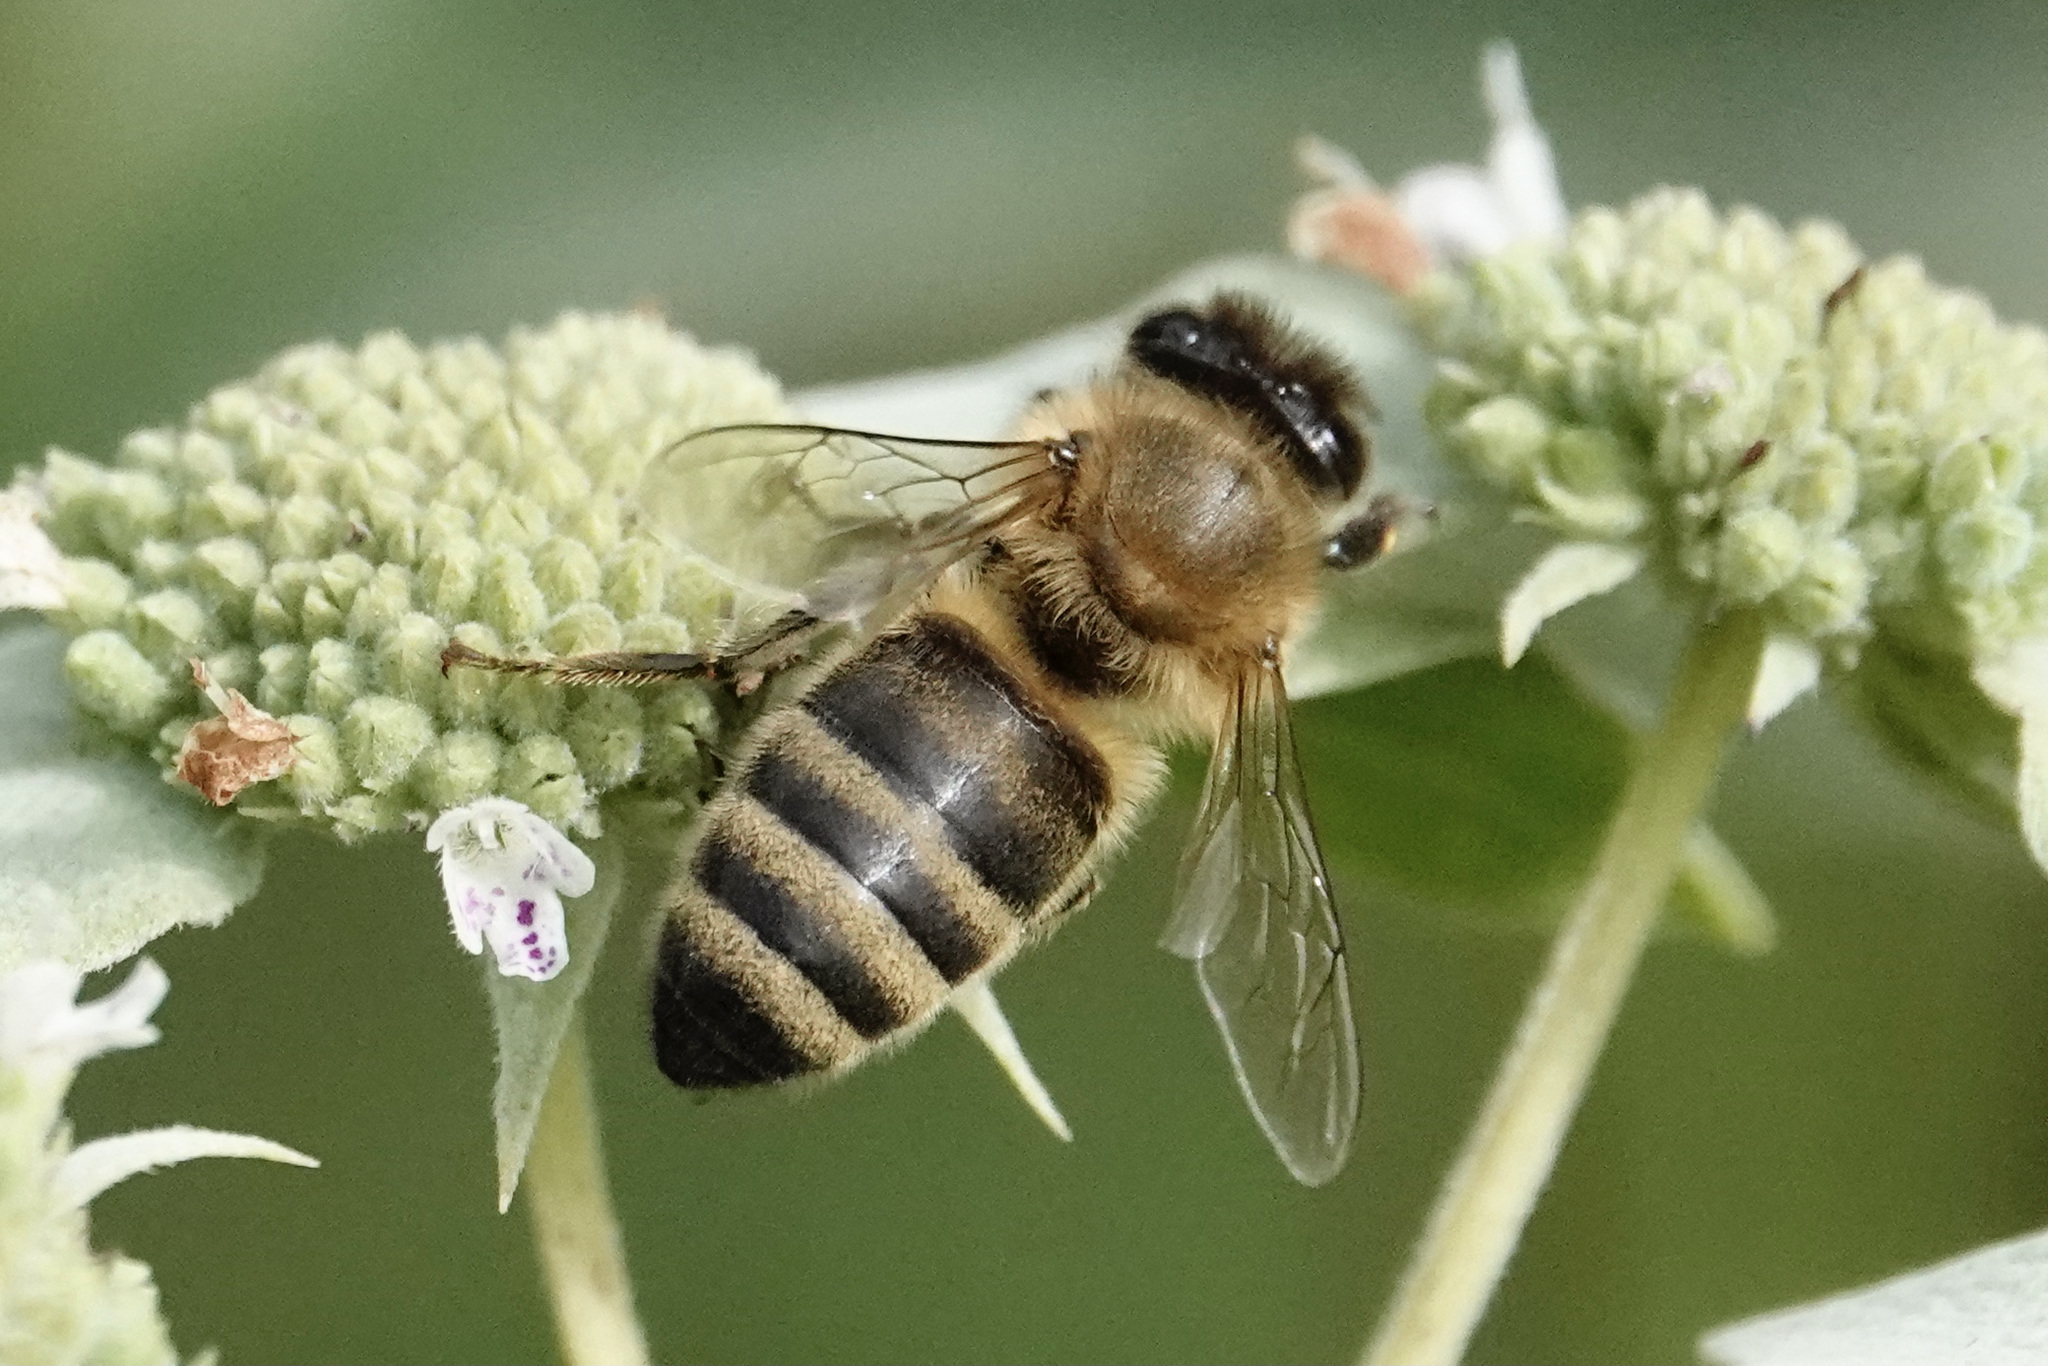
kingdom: Animalia
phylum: Arthropoda
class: Insecta
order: Hymenoptera
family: Apidae
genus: Apis
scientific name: Apis mellifera
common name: Honey bee
